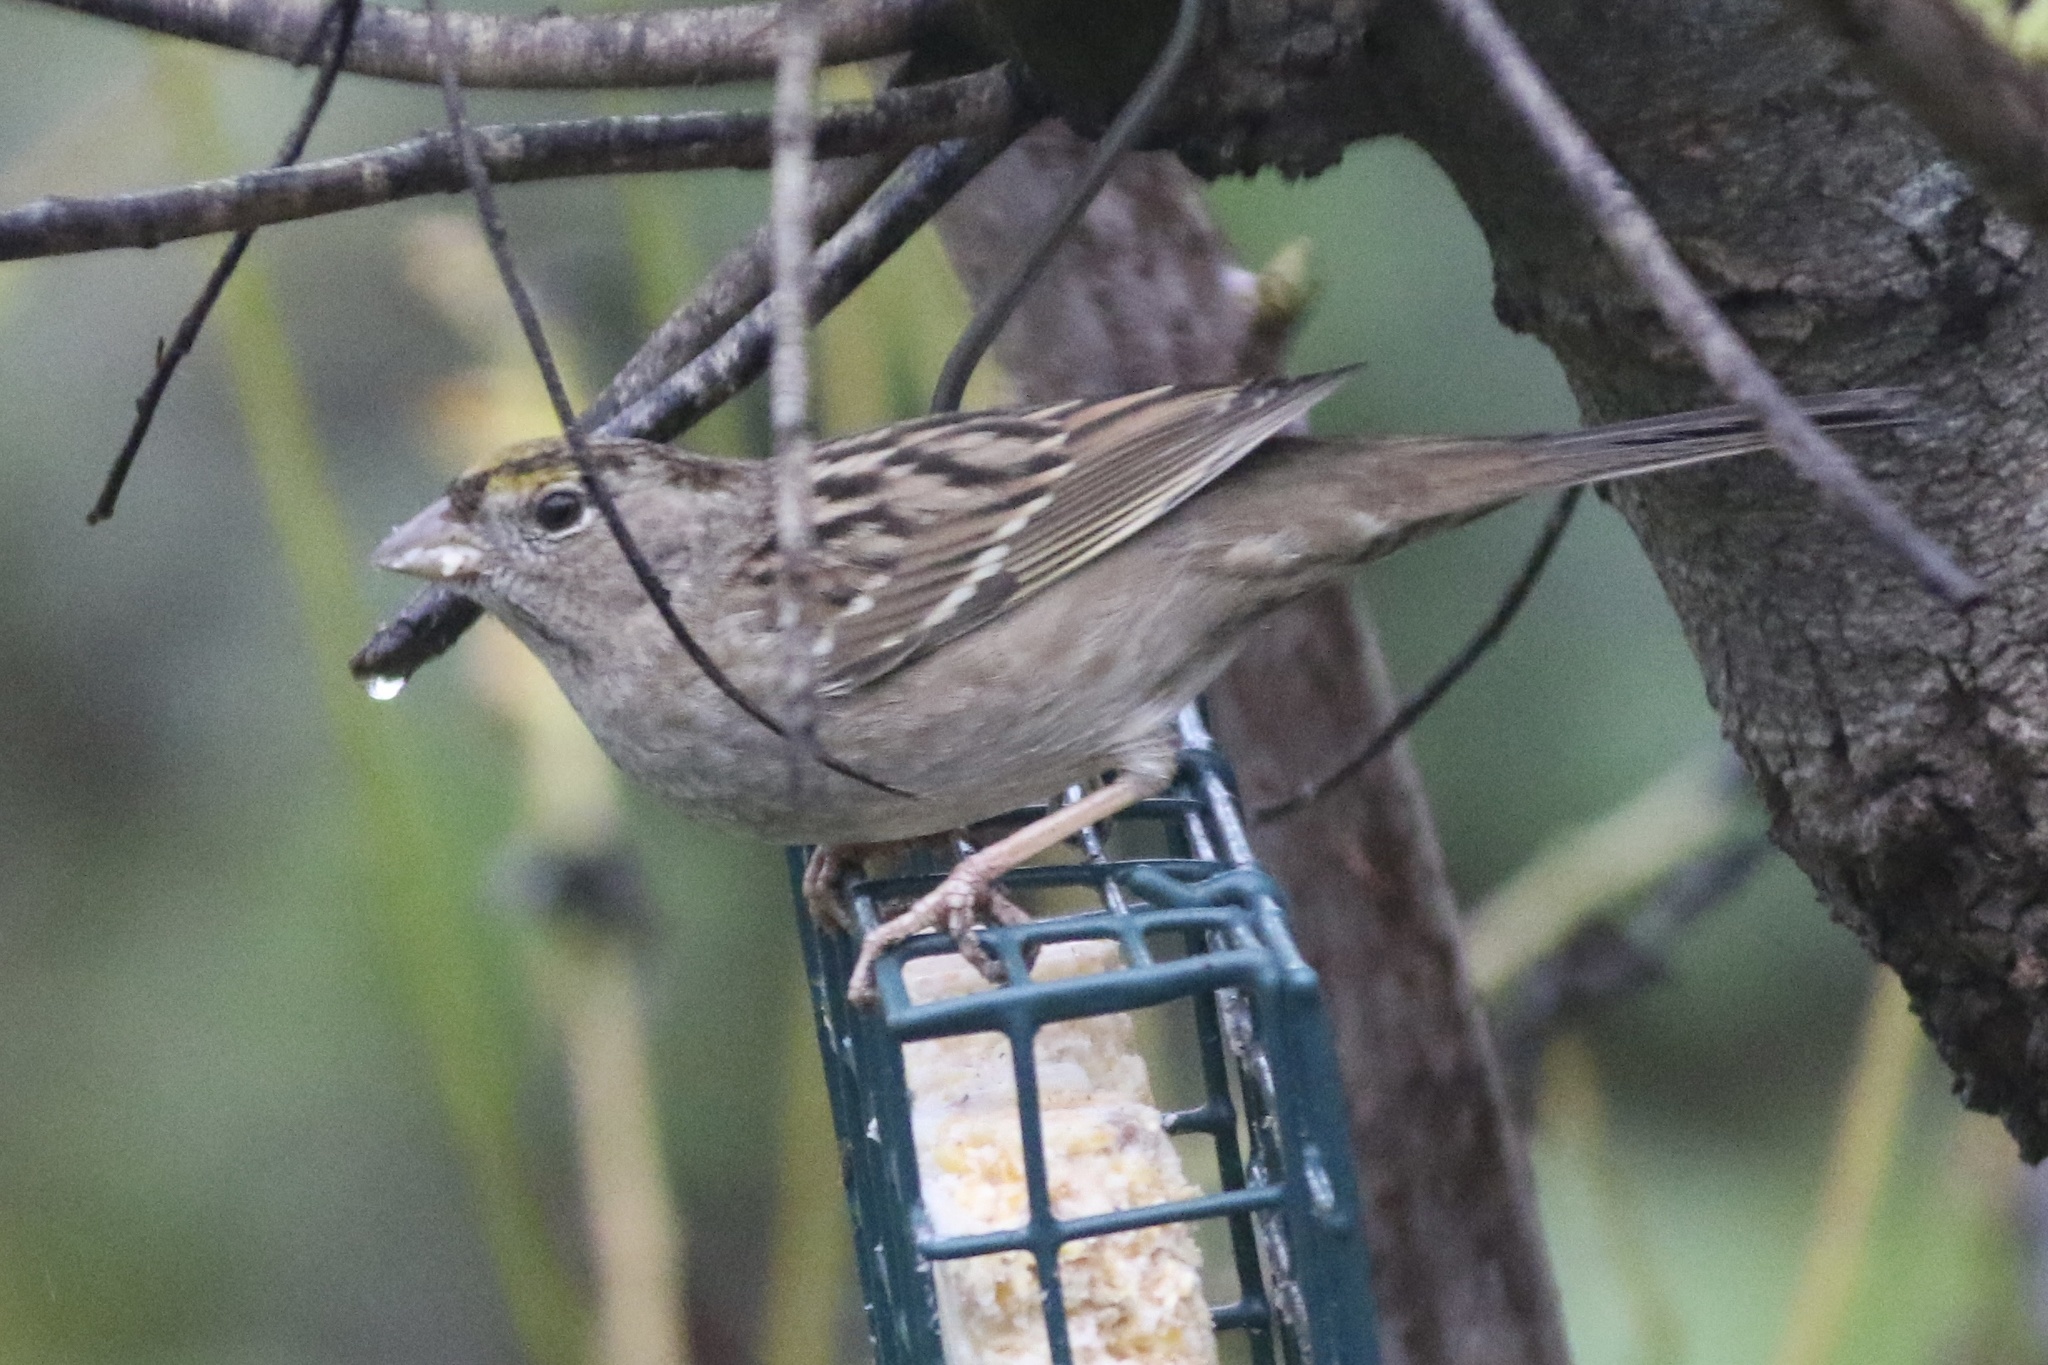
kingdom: Animalia
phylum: Chordata
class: Aves
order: Passeriformes
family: Passerellidae
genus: Zonotrichia
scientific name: Zonotrichia atricapilla
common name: Golden-crowned sparrow
